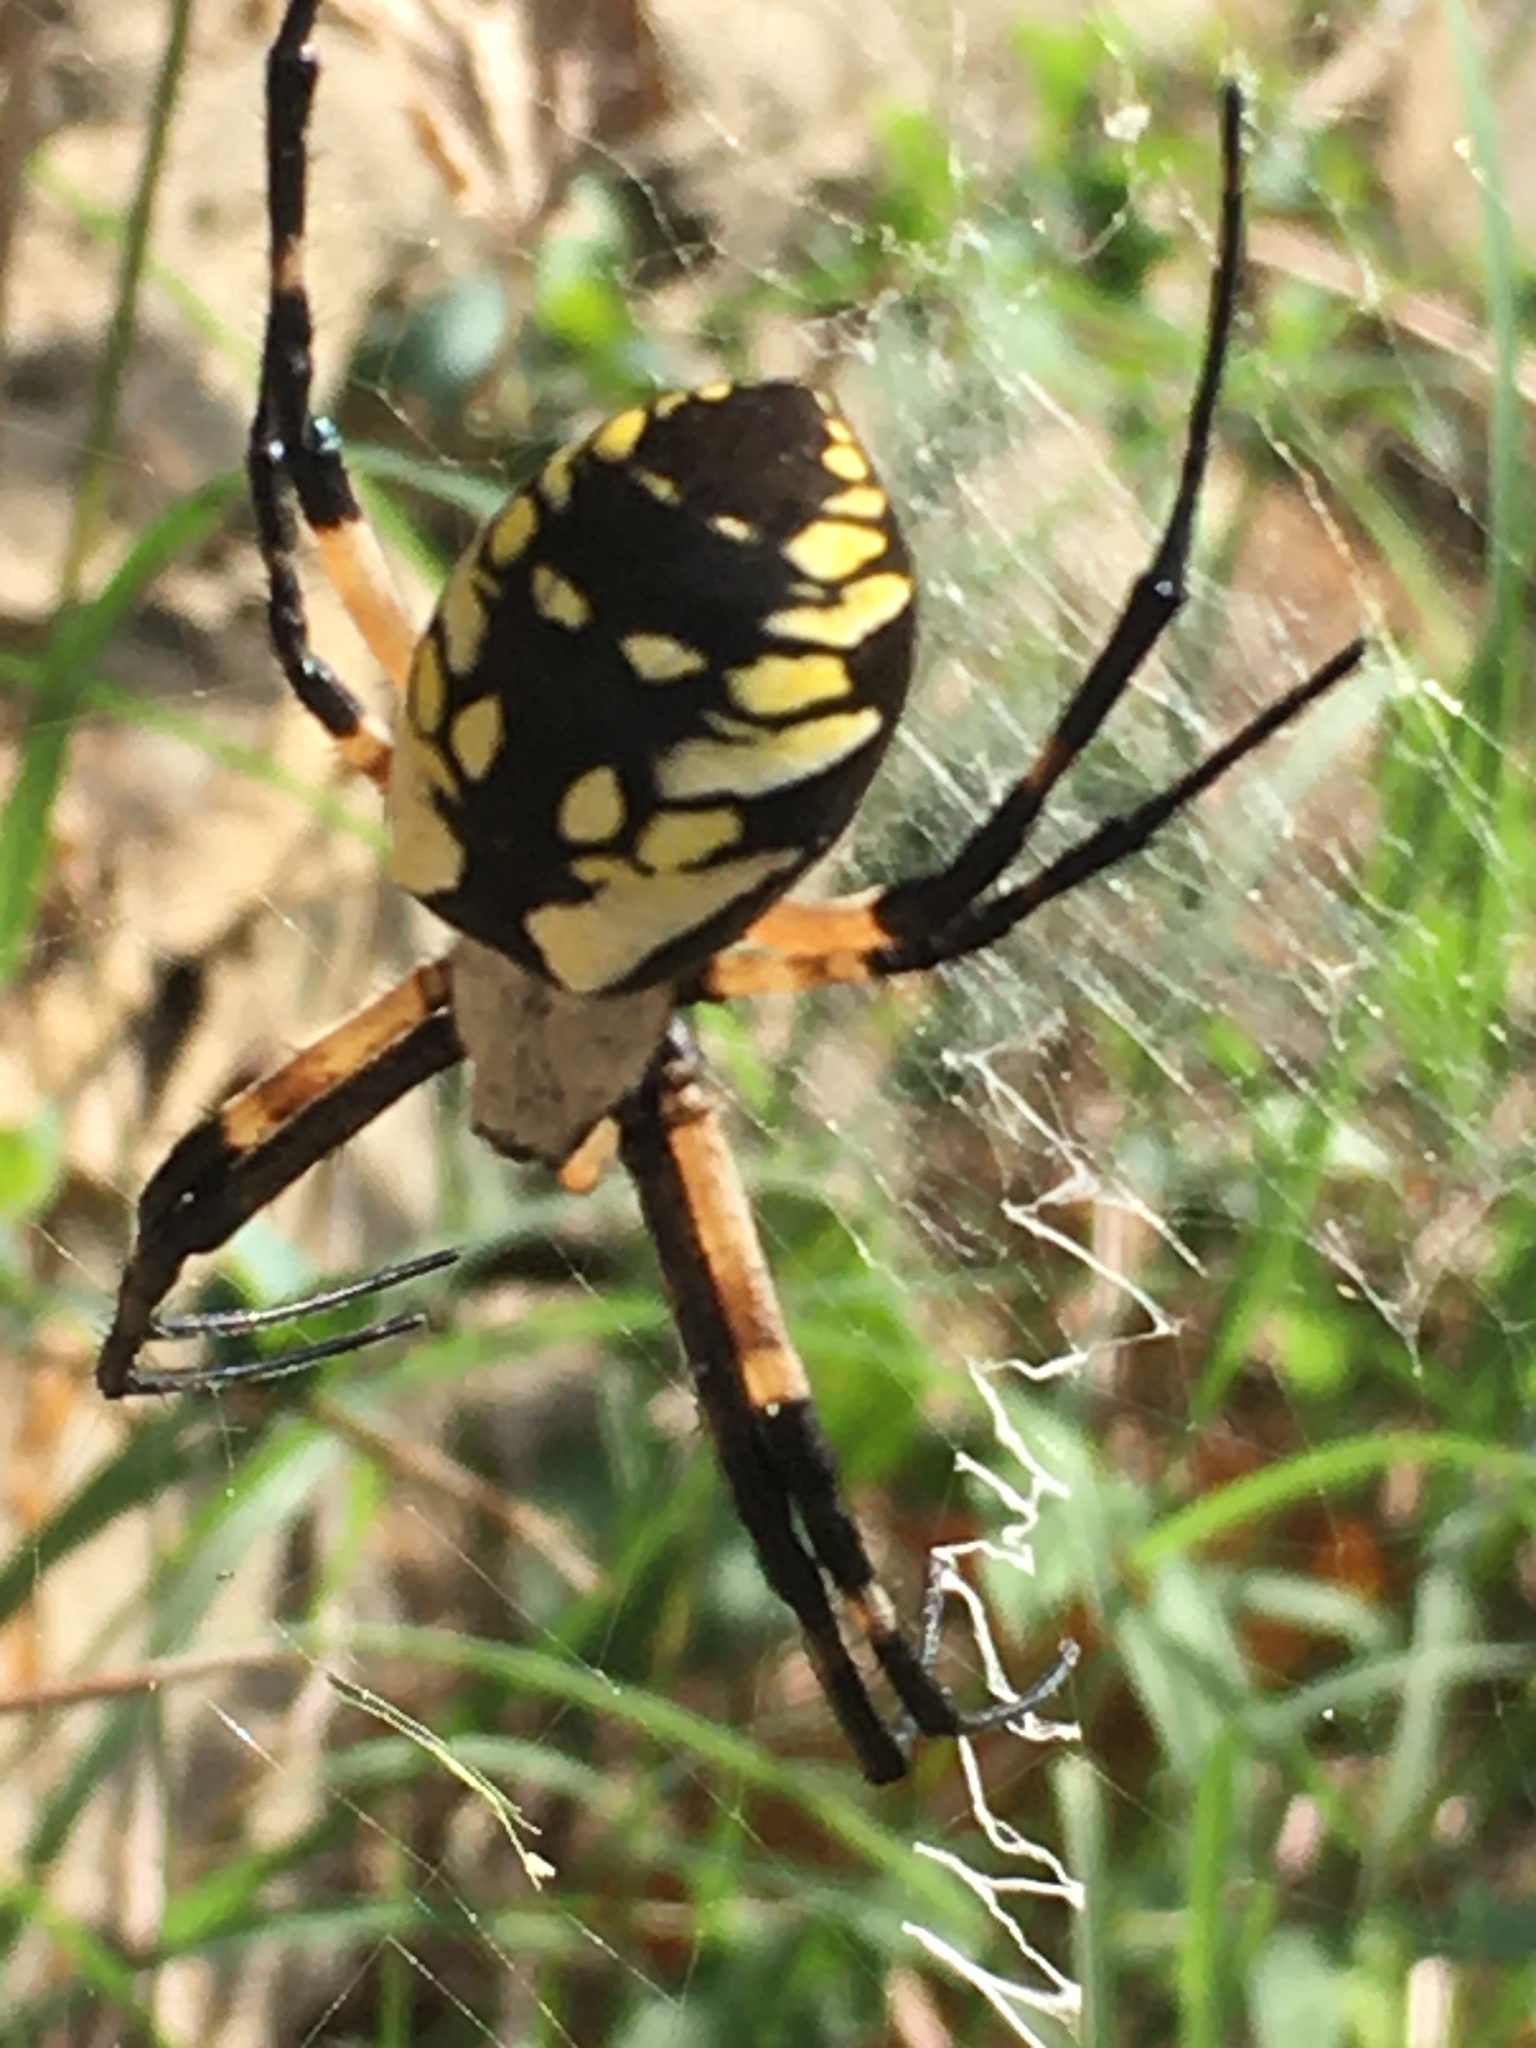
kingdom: Animalia
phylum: Arthropoda
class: Arachnida
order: Araneae
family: Araneidae
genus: Argiope
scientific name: Argiope aurantia
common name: Orb weavers
